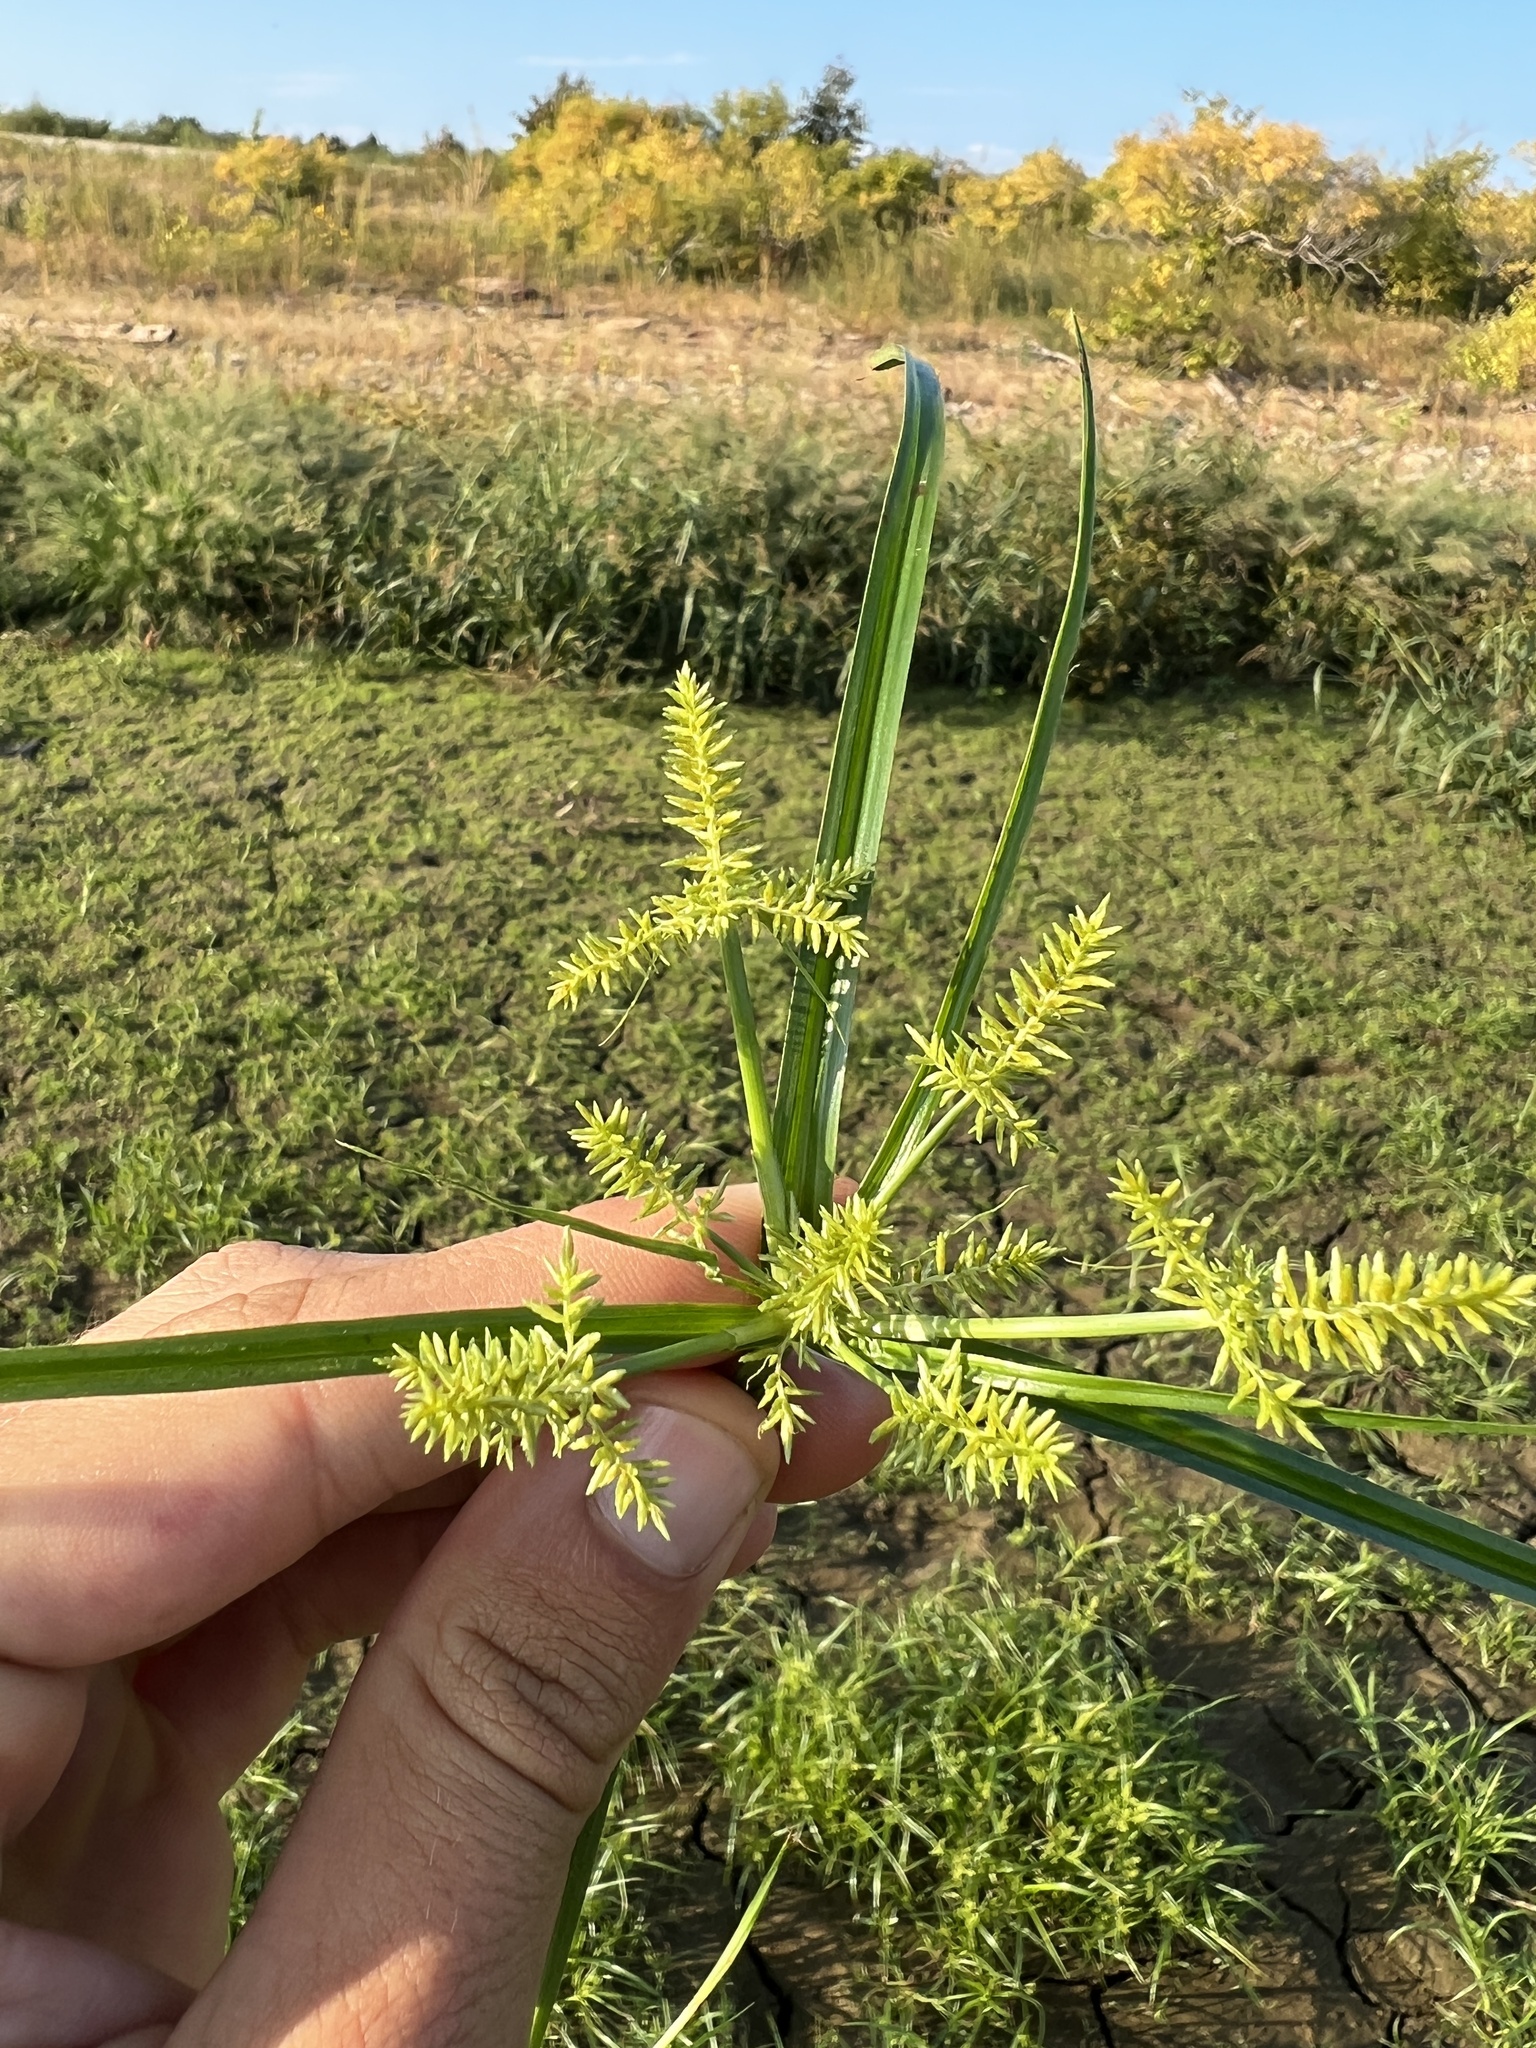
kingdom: Plantae
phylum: Tracheophyta
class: Liliopsida
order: Poales
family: Cyperaceae
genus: Cyperus
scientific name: Cyperus odoratus
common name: Fragrant flatsedge
